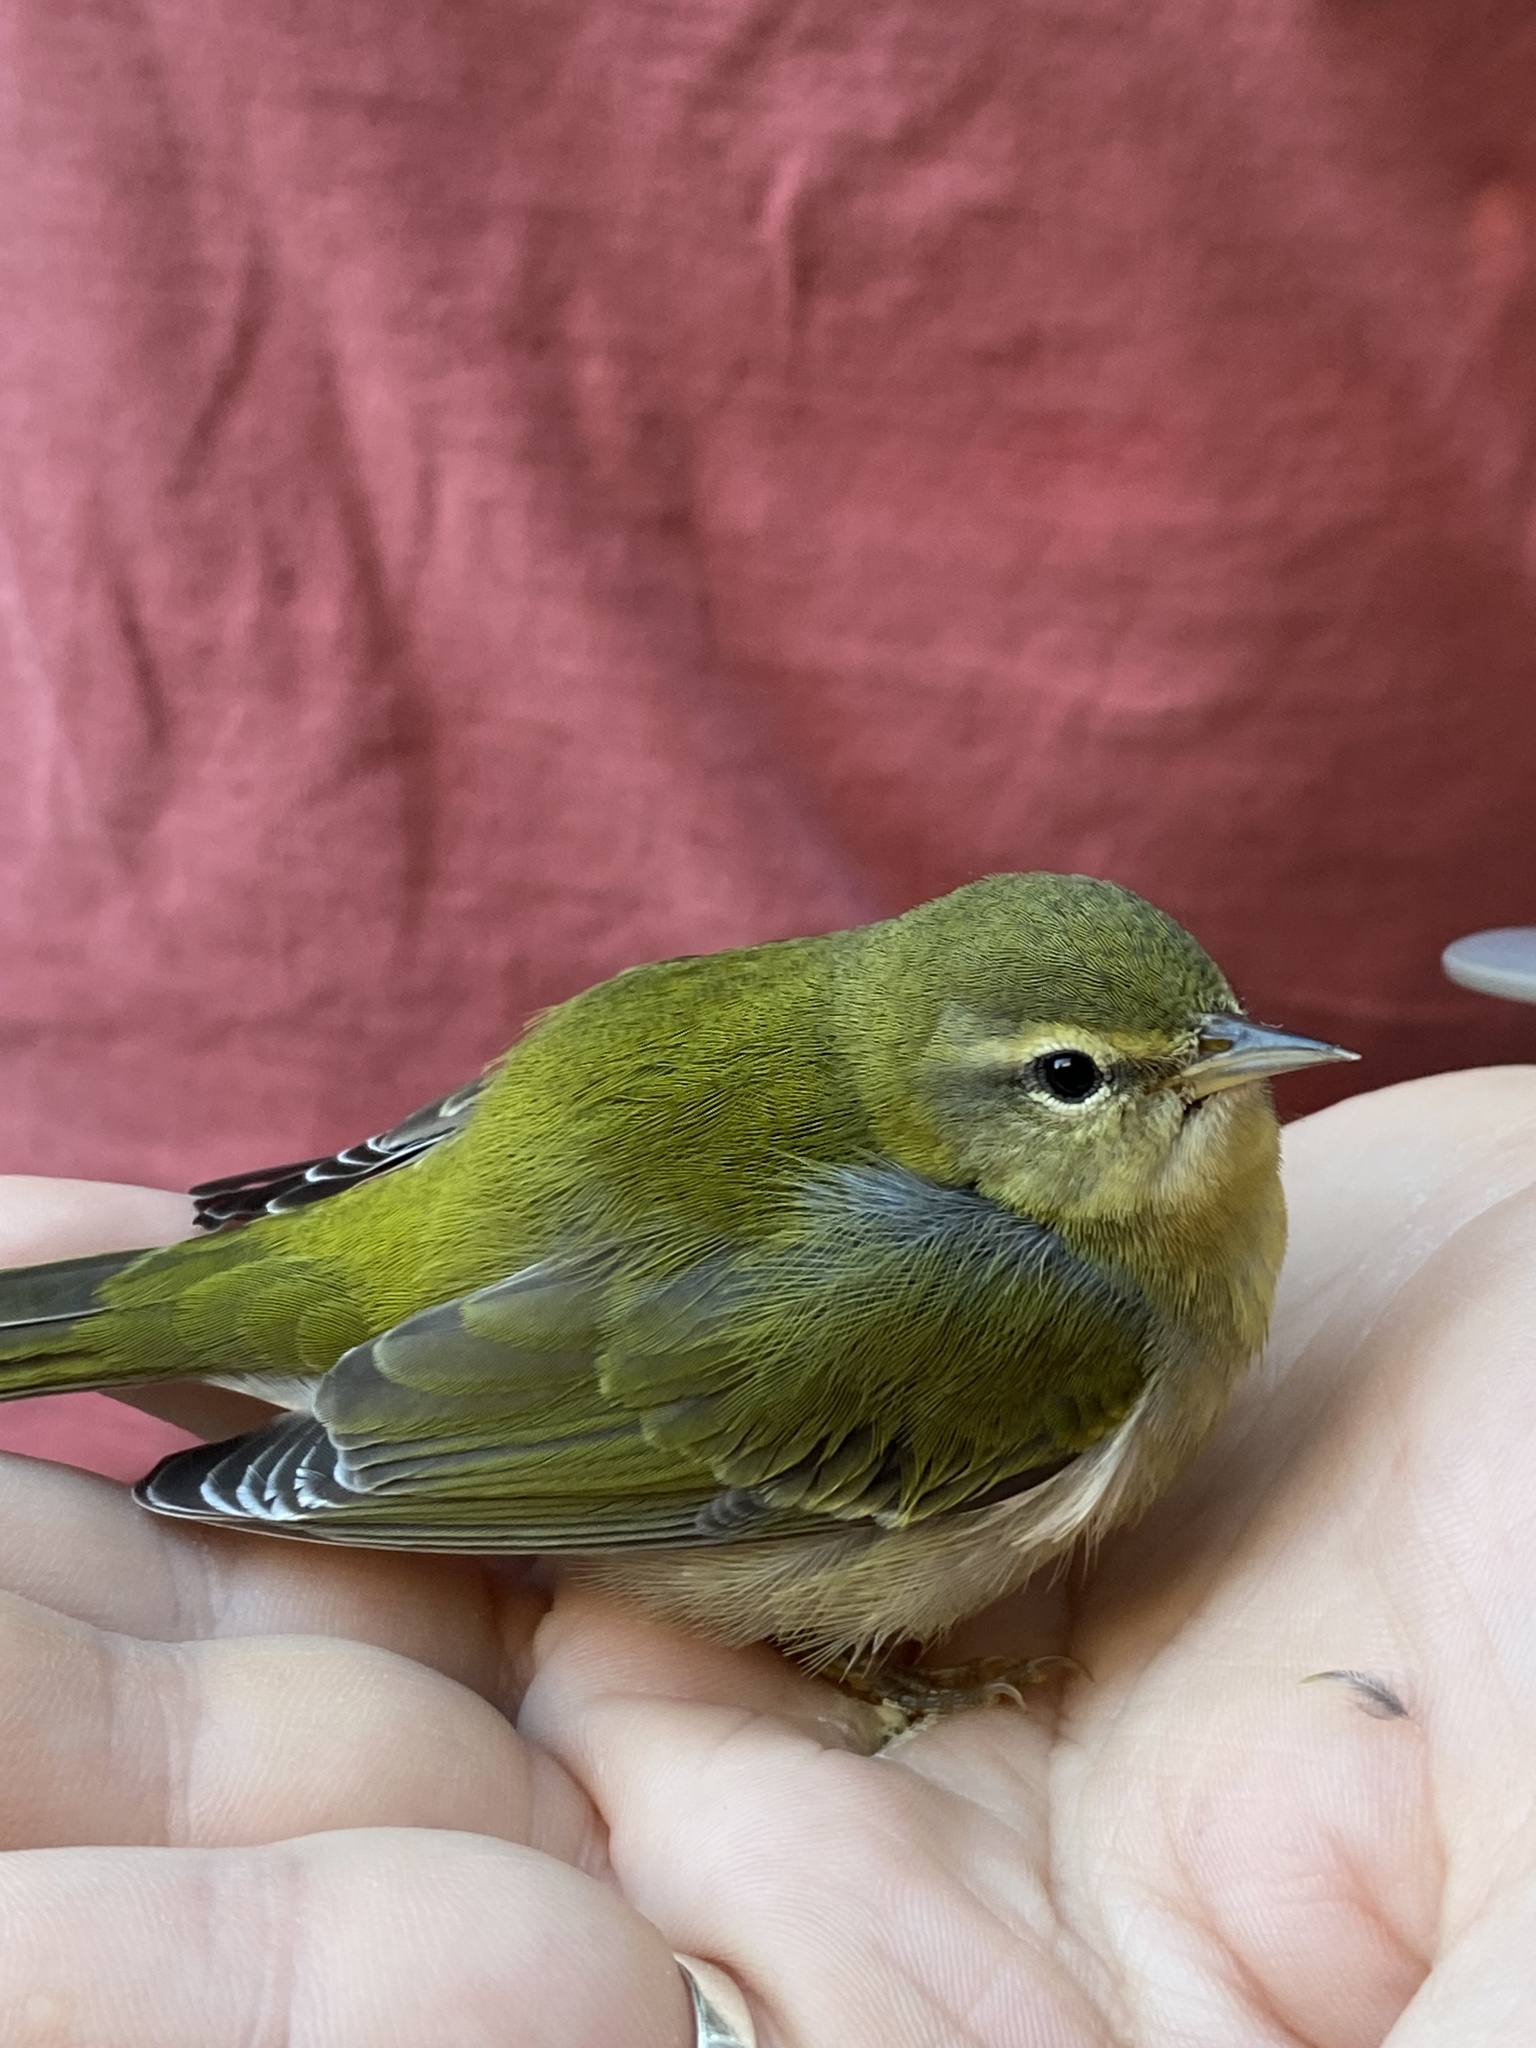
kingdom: Animalia
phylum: Chordata
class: Aves
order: Passeriformes
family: Parulidae
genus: Leiothlypis
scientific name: Leiothlypis peregrina
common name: Tennessee warbler
